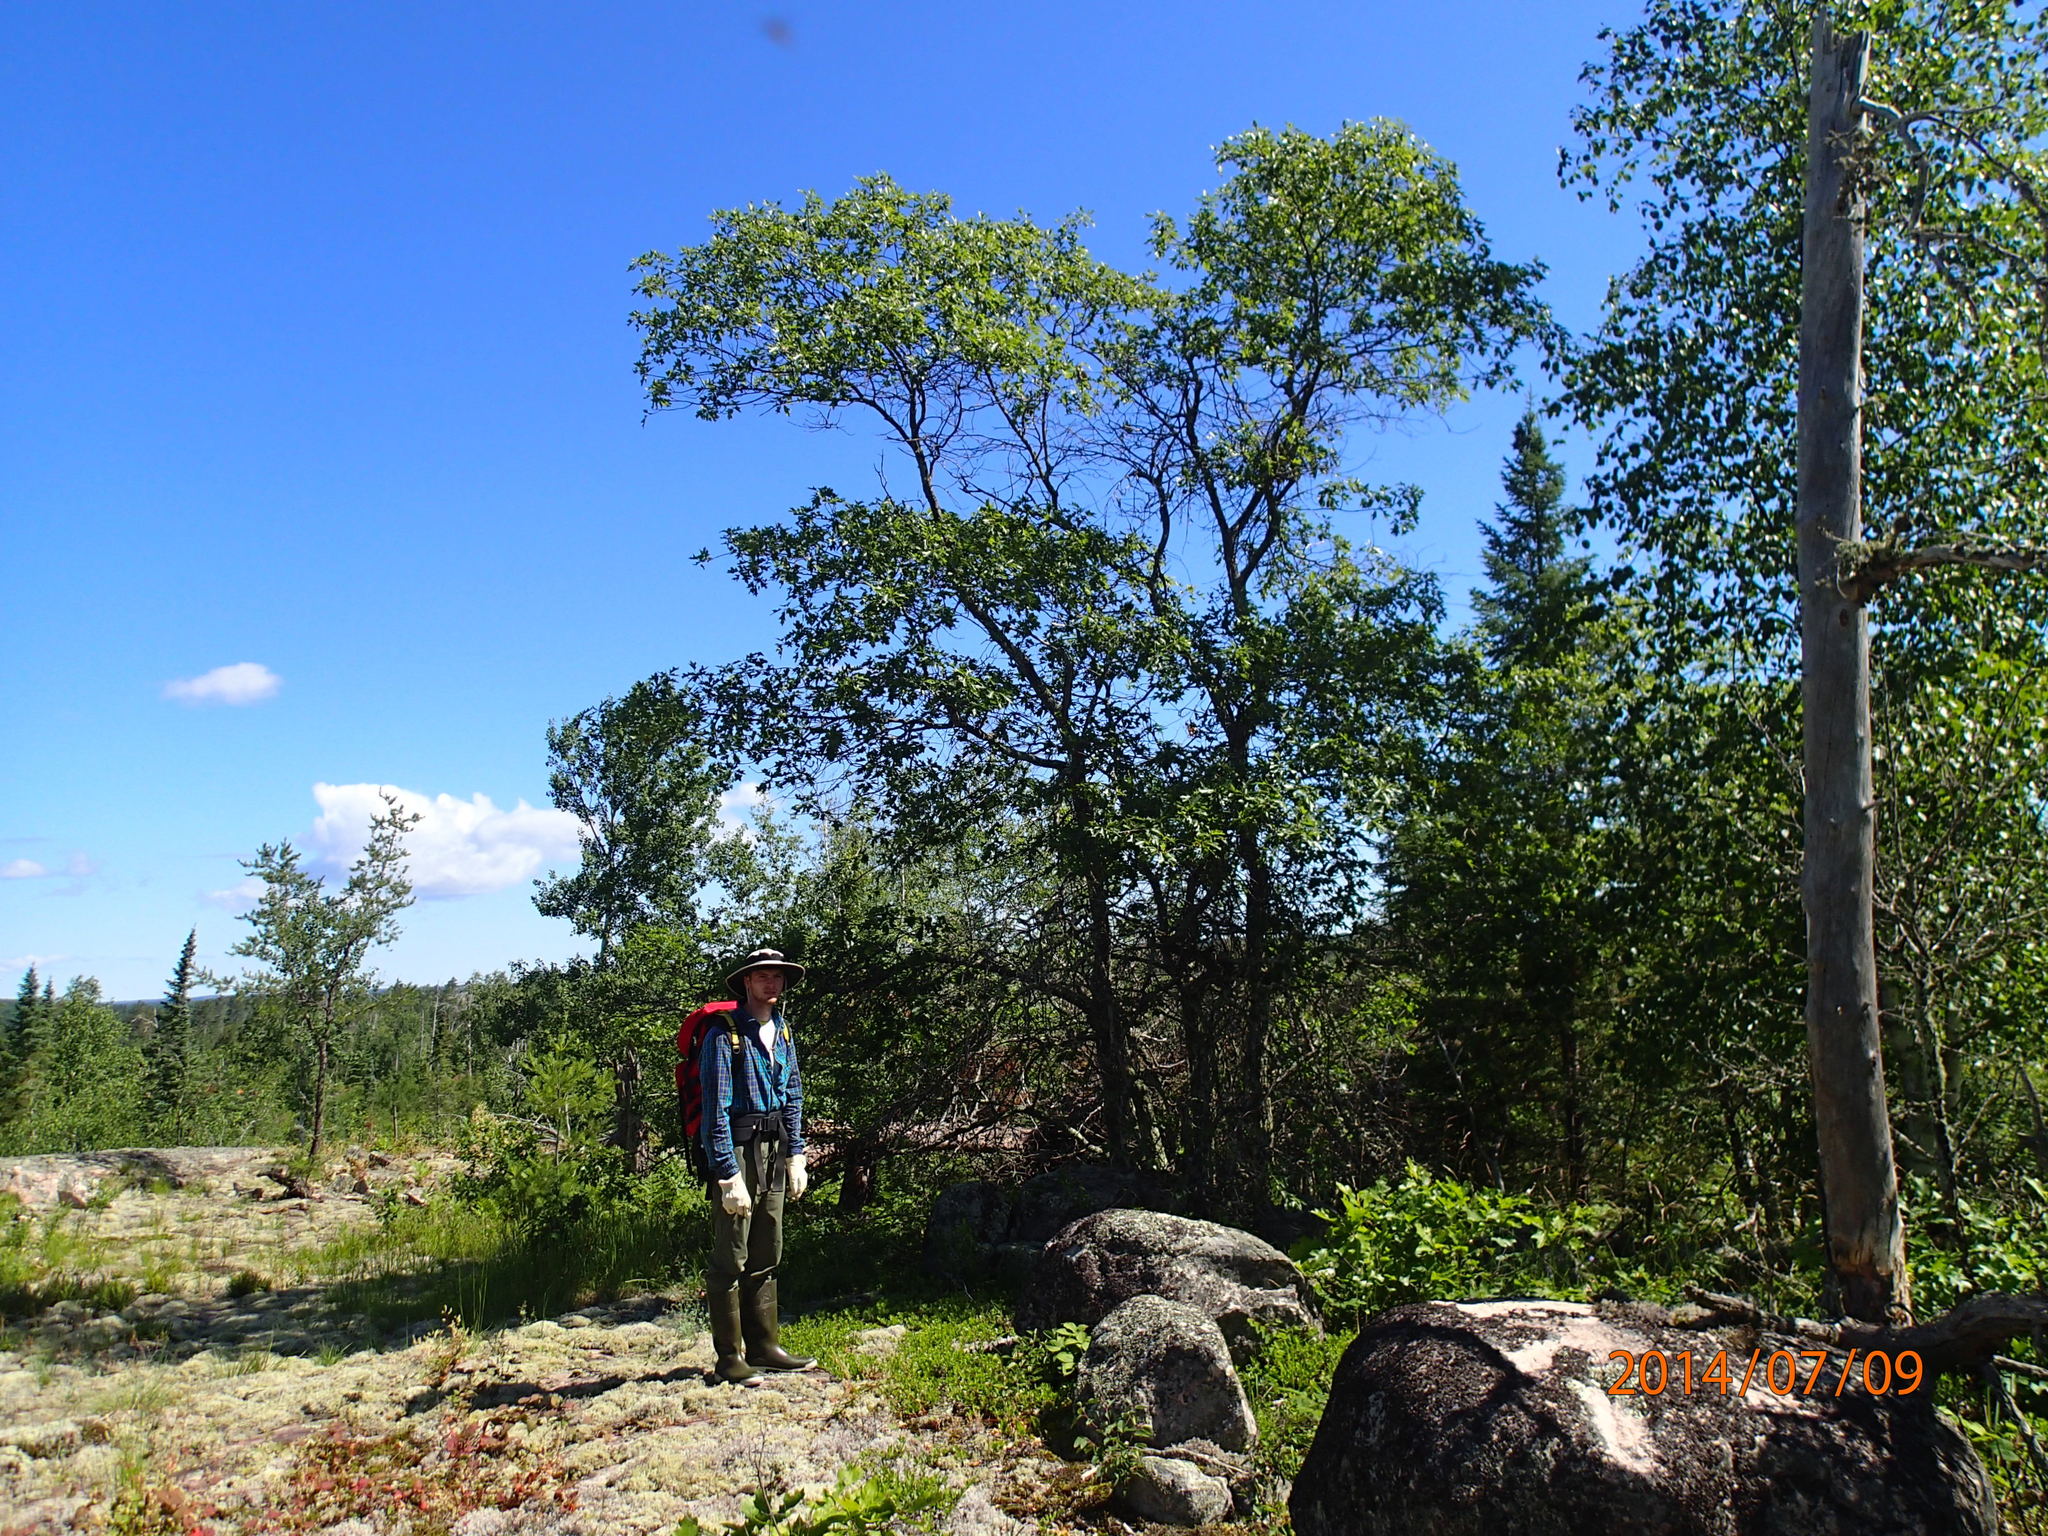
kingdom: Plantae
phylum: Tracheophyta
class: Magnoliopsida
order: Fagales
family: Fagaceae
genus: Quercus
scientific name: Quercus ellipsoidalis
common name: Hill's oak
